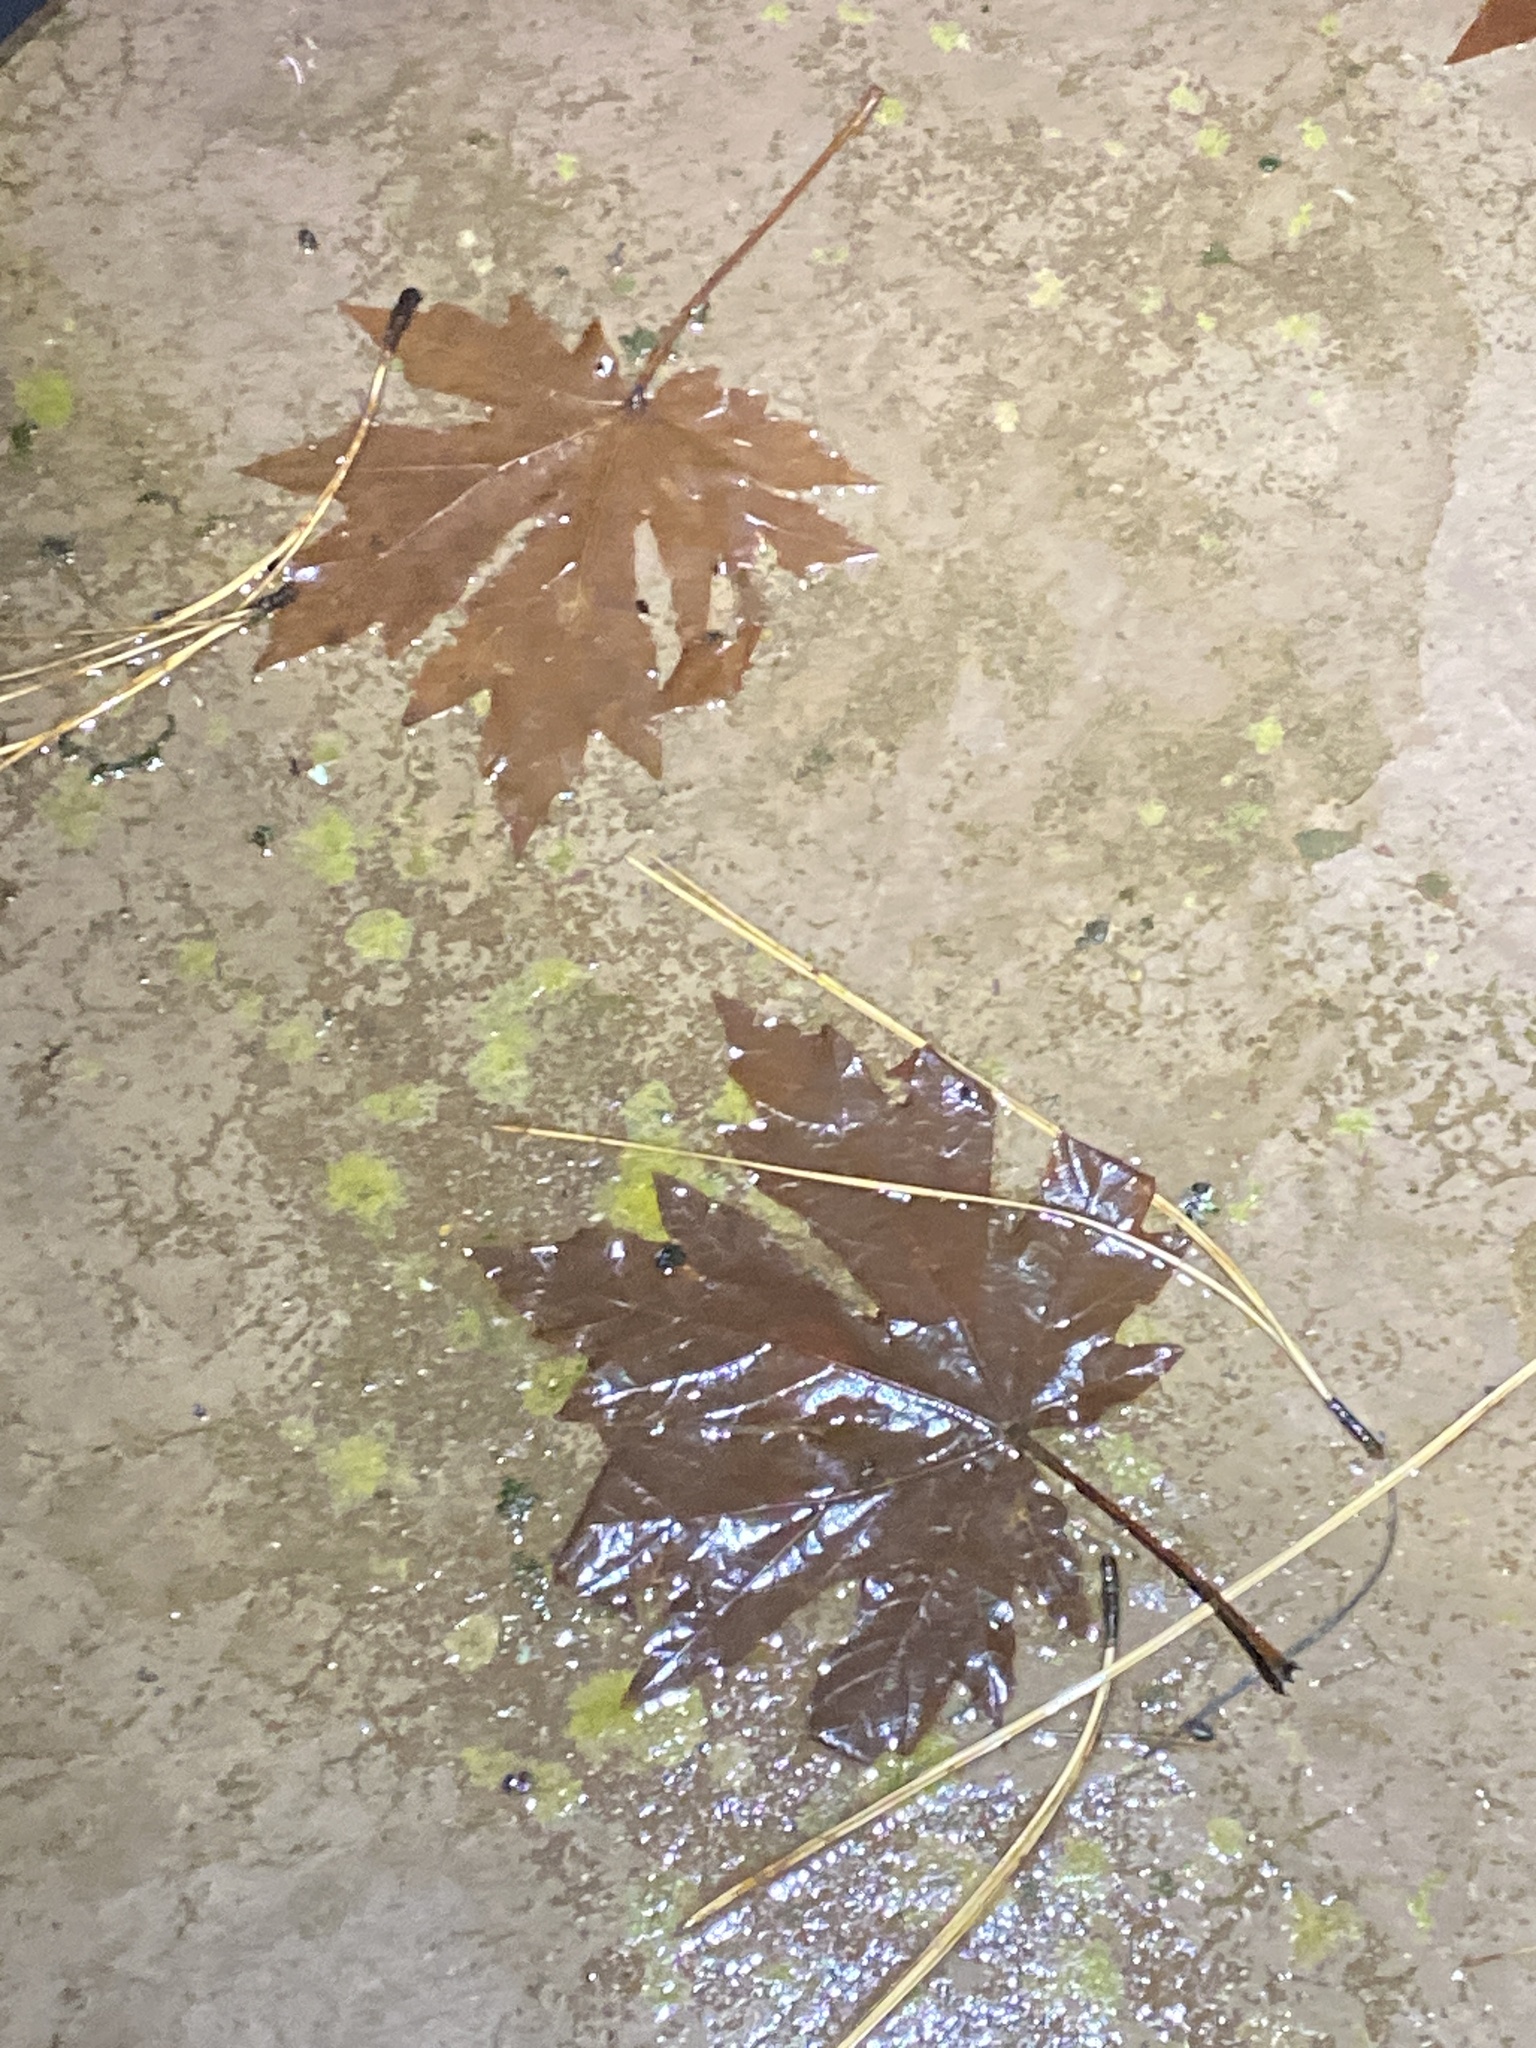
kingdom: Plantae
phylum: Tracheophyta
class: Magnoliopsida
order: Sapindales
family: Sapindaceae
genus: Acer
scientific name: Acer macrophyllum
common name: Oregon maple
